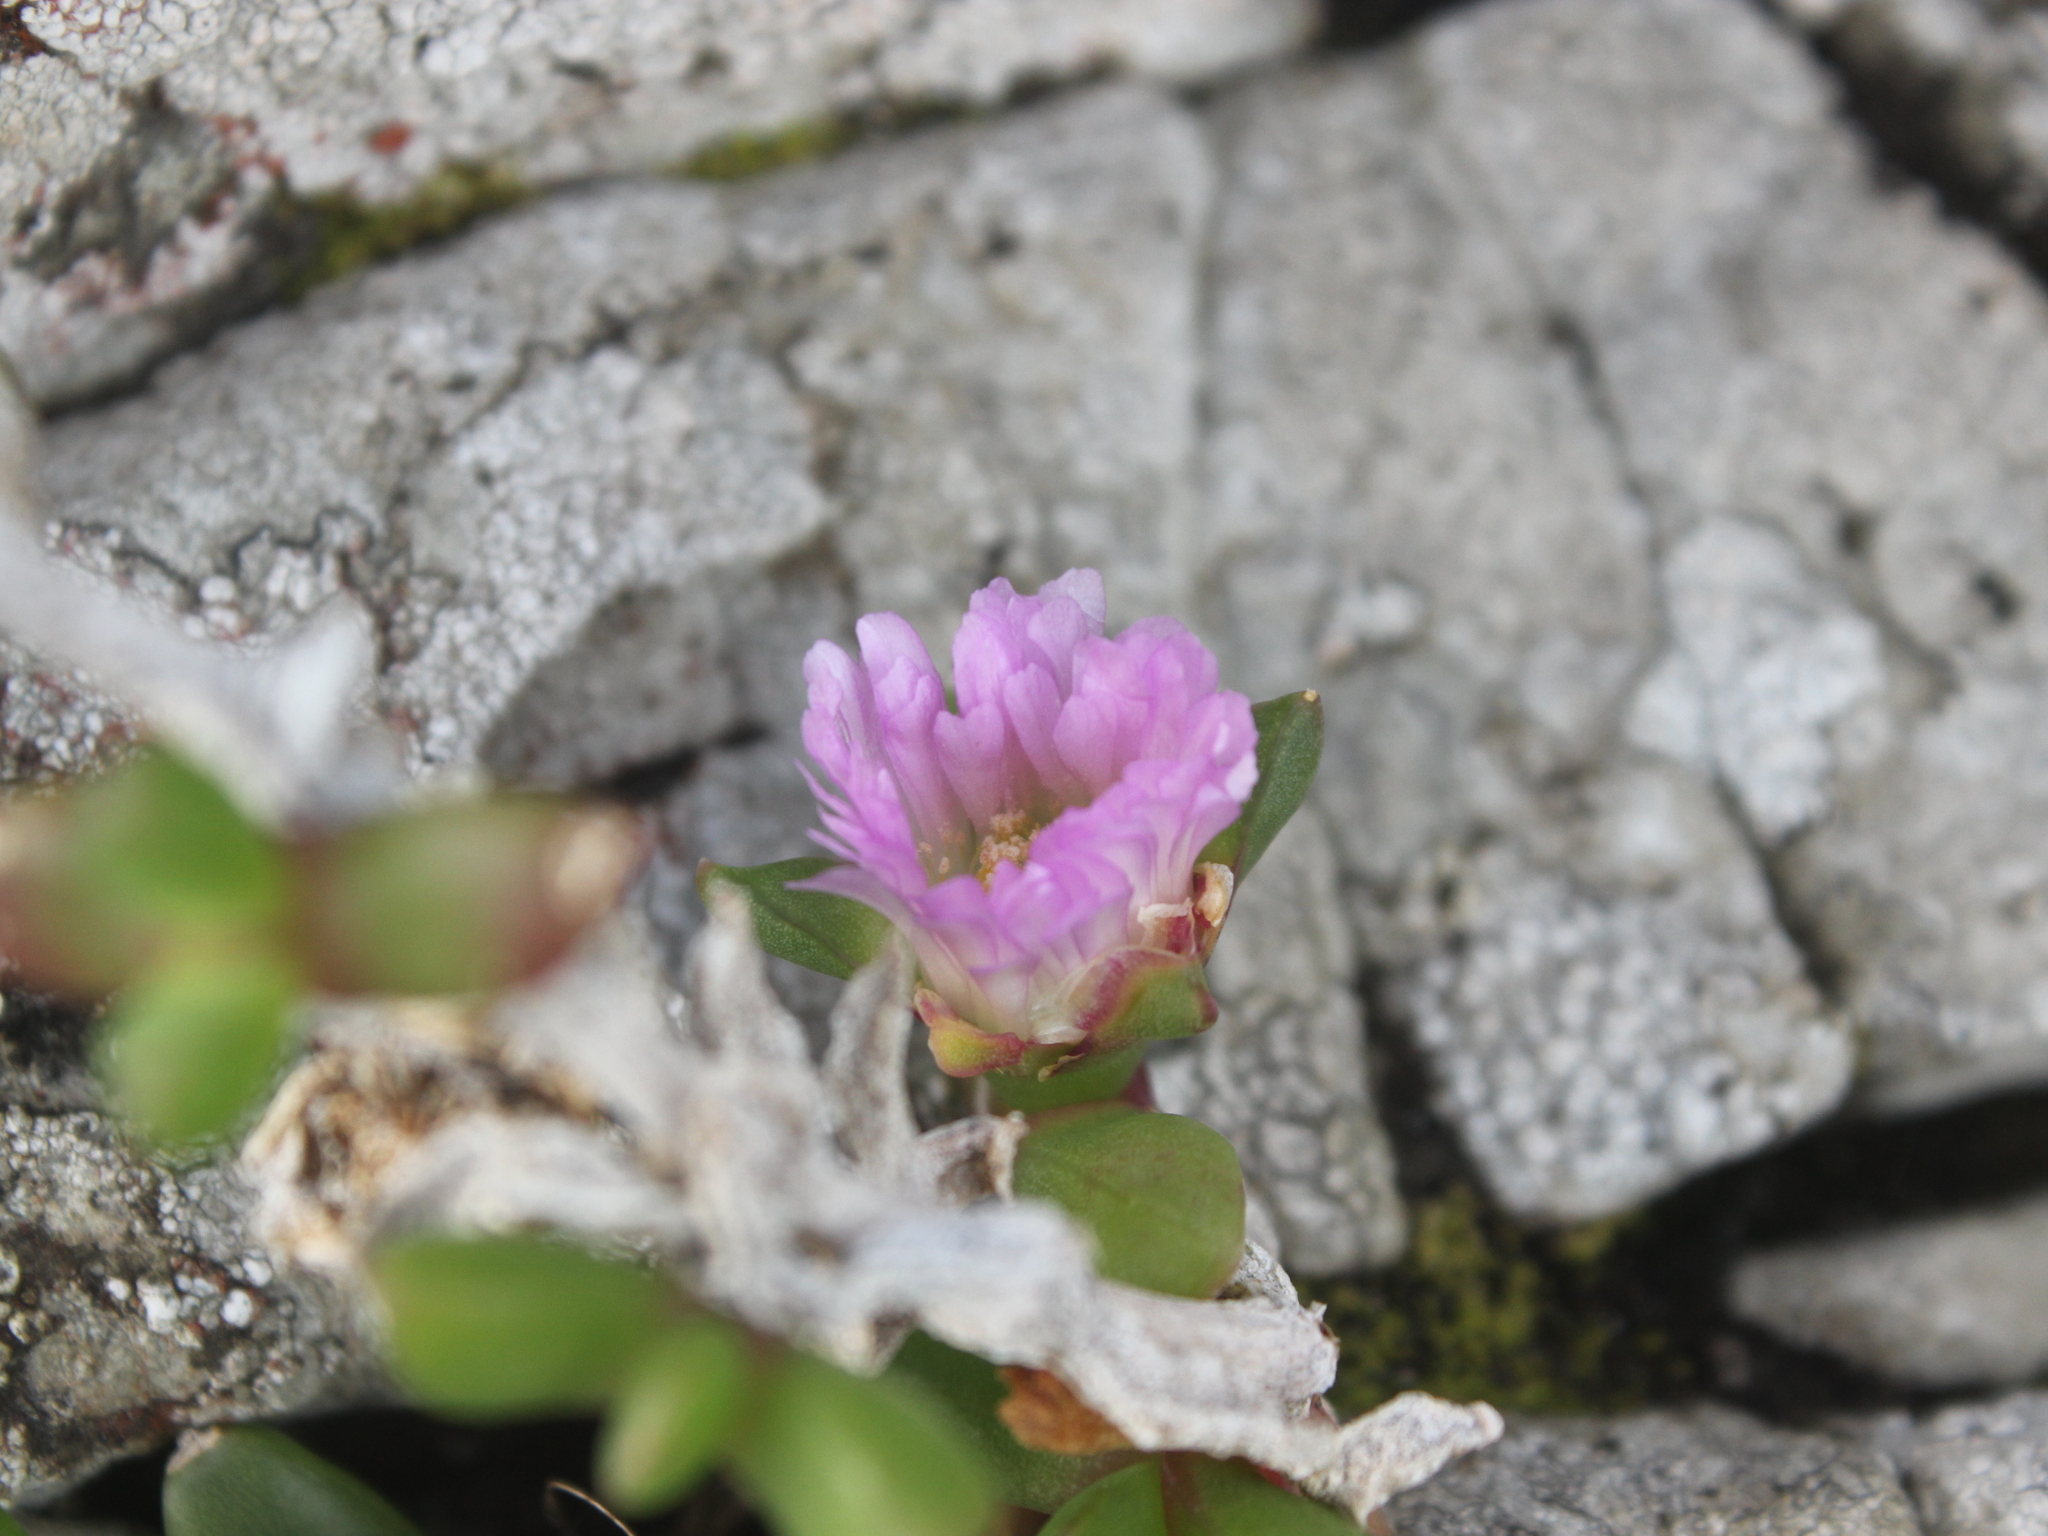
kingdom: Plantae
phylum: Tracheophyta
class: Magnoliopsida
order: Caryophyllales
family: Aizoaceae
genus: Disphyma
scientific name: Disphyma australe
